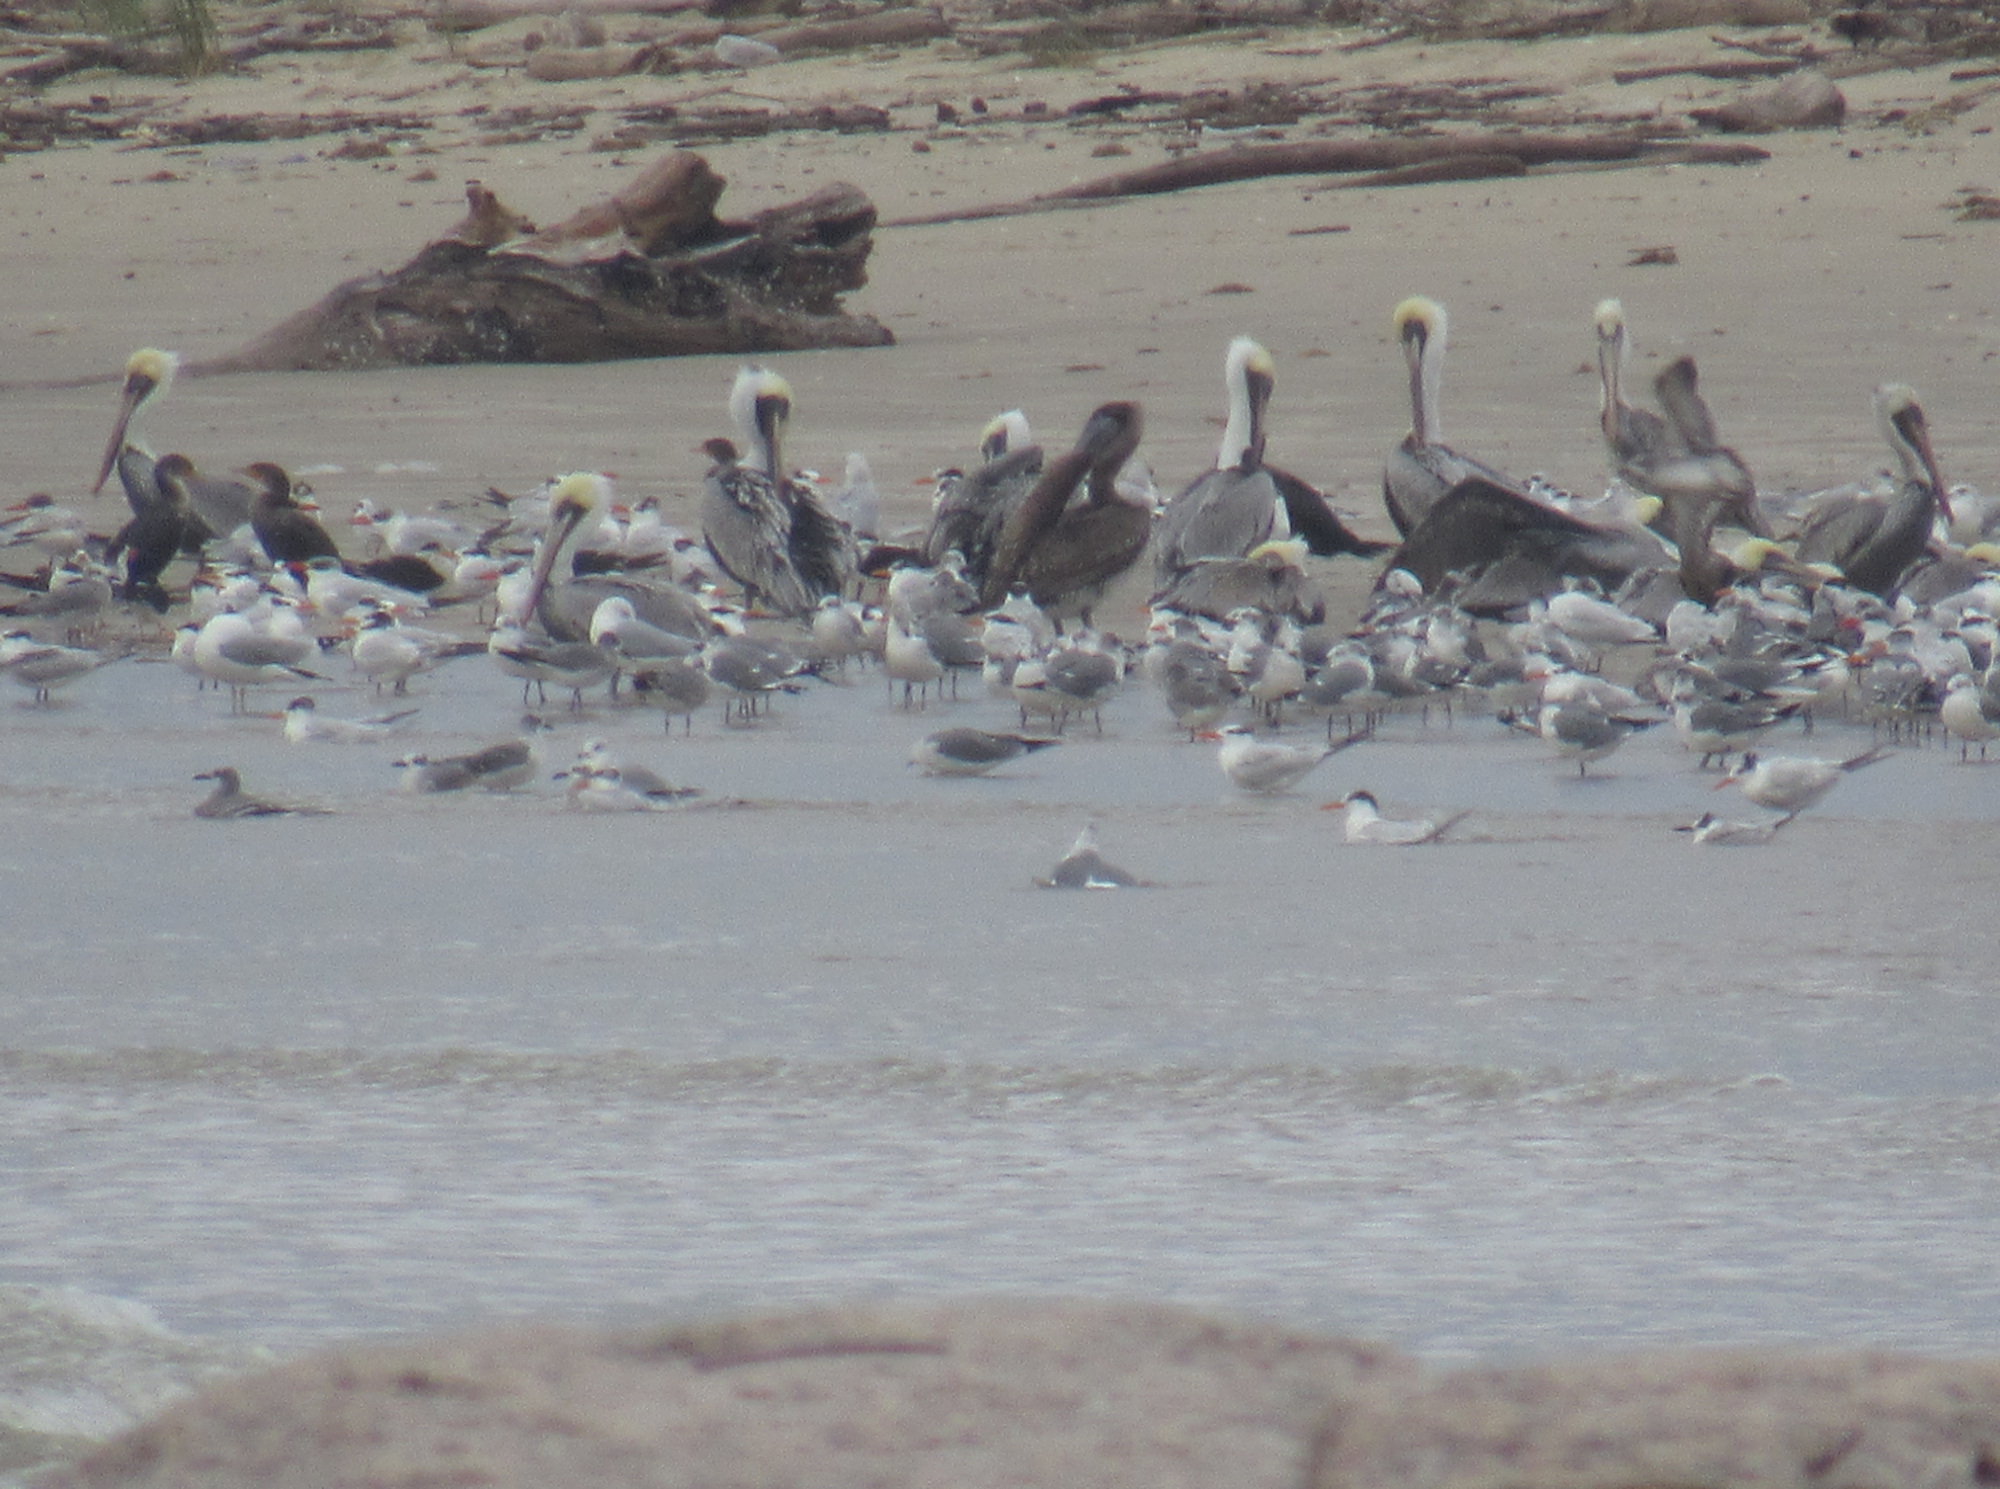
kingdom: Animalia
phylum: Chordata
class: Aves
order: Pelecaniformes
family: Pelecanidae
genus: Pelecanus
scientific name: Pelecanus occidentalis
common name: Brown pelican
